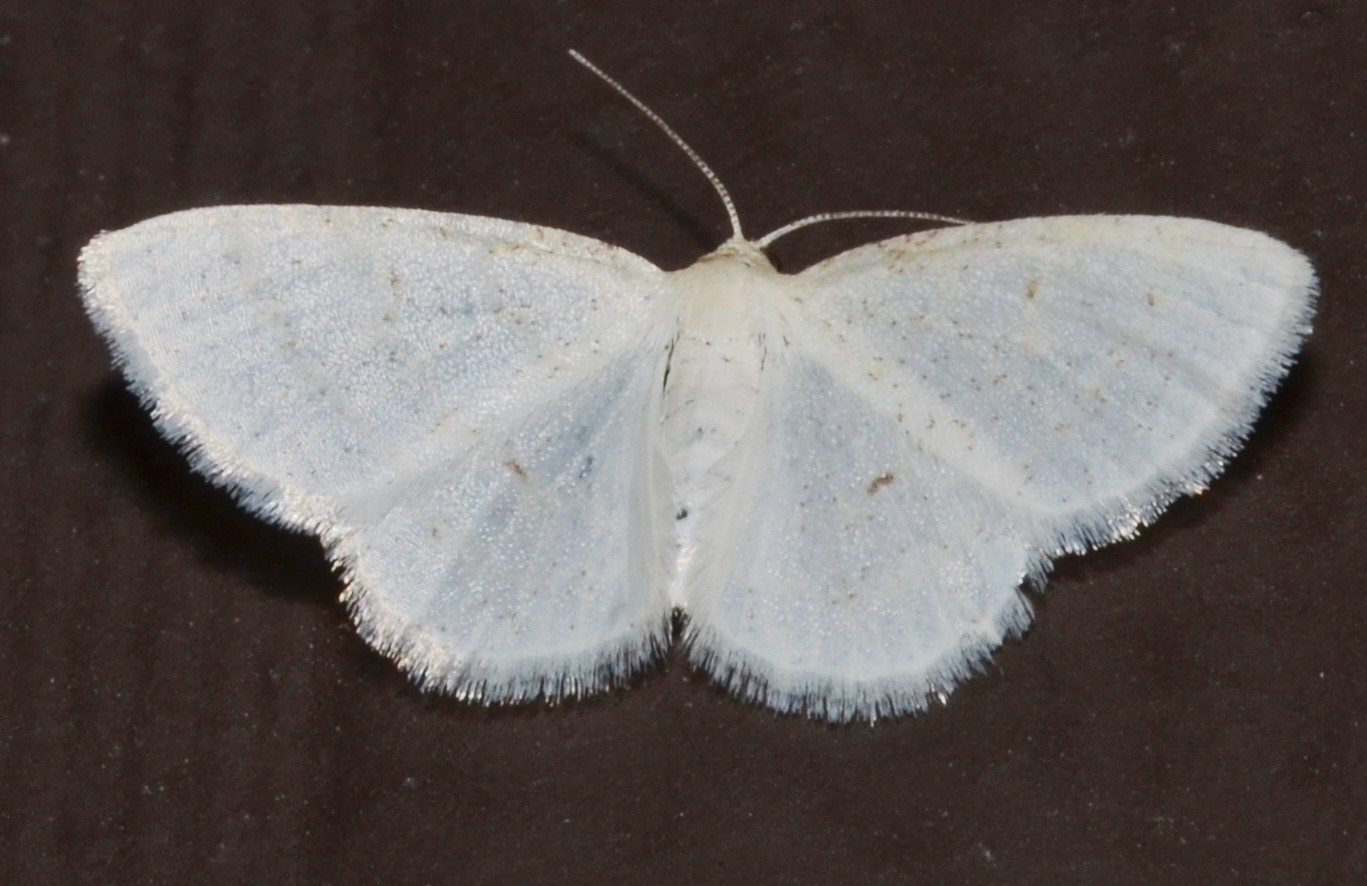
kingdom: Animalia
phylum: Arthropoda
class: Insecta
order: Lepidoptera
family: Geometridae
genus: Protitame
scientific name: Protitame virginalis
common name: Virgin moth
